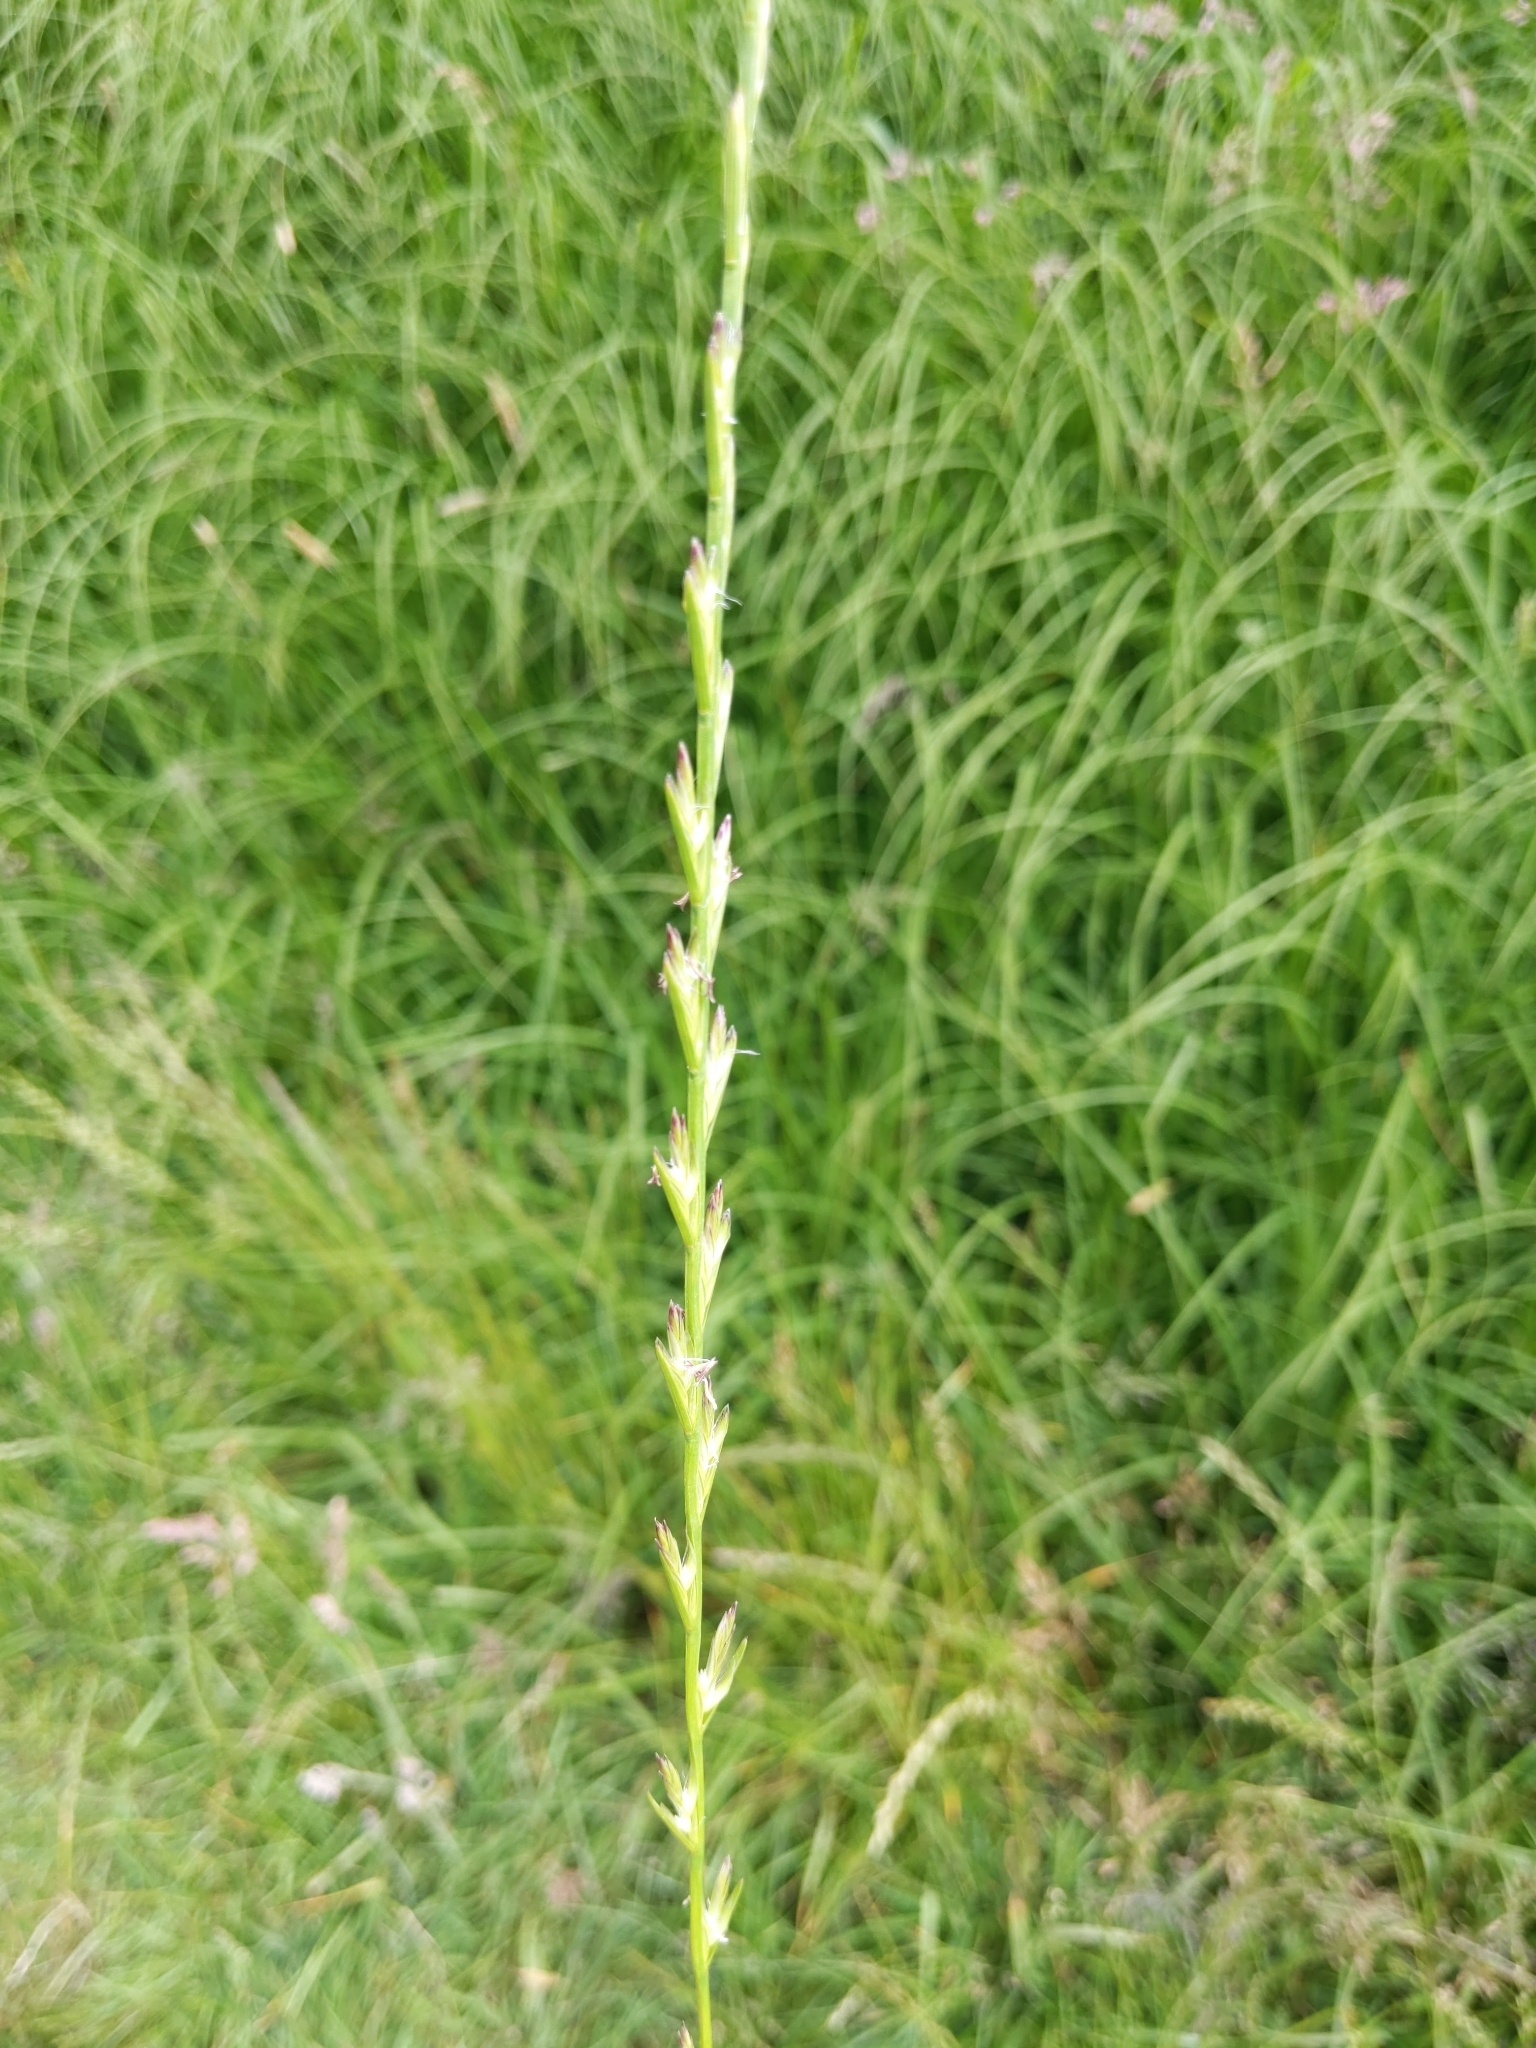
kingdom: Plantae
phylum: Tracheophyta
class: Liliopsida
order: Poales
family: Poaceae
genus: Lolium
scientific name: Lolium perenne
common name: Perennial ryegrass
